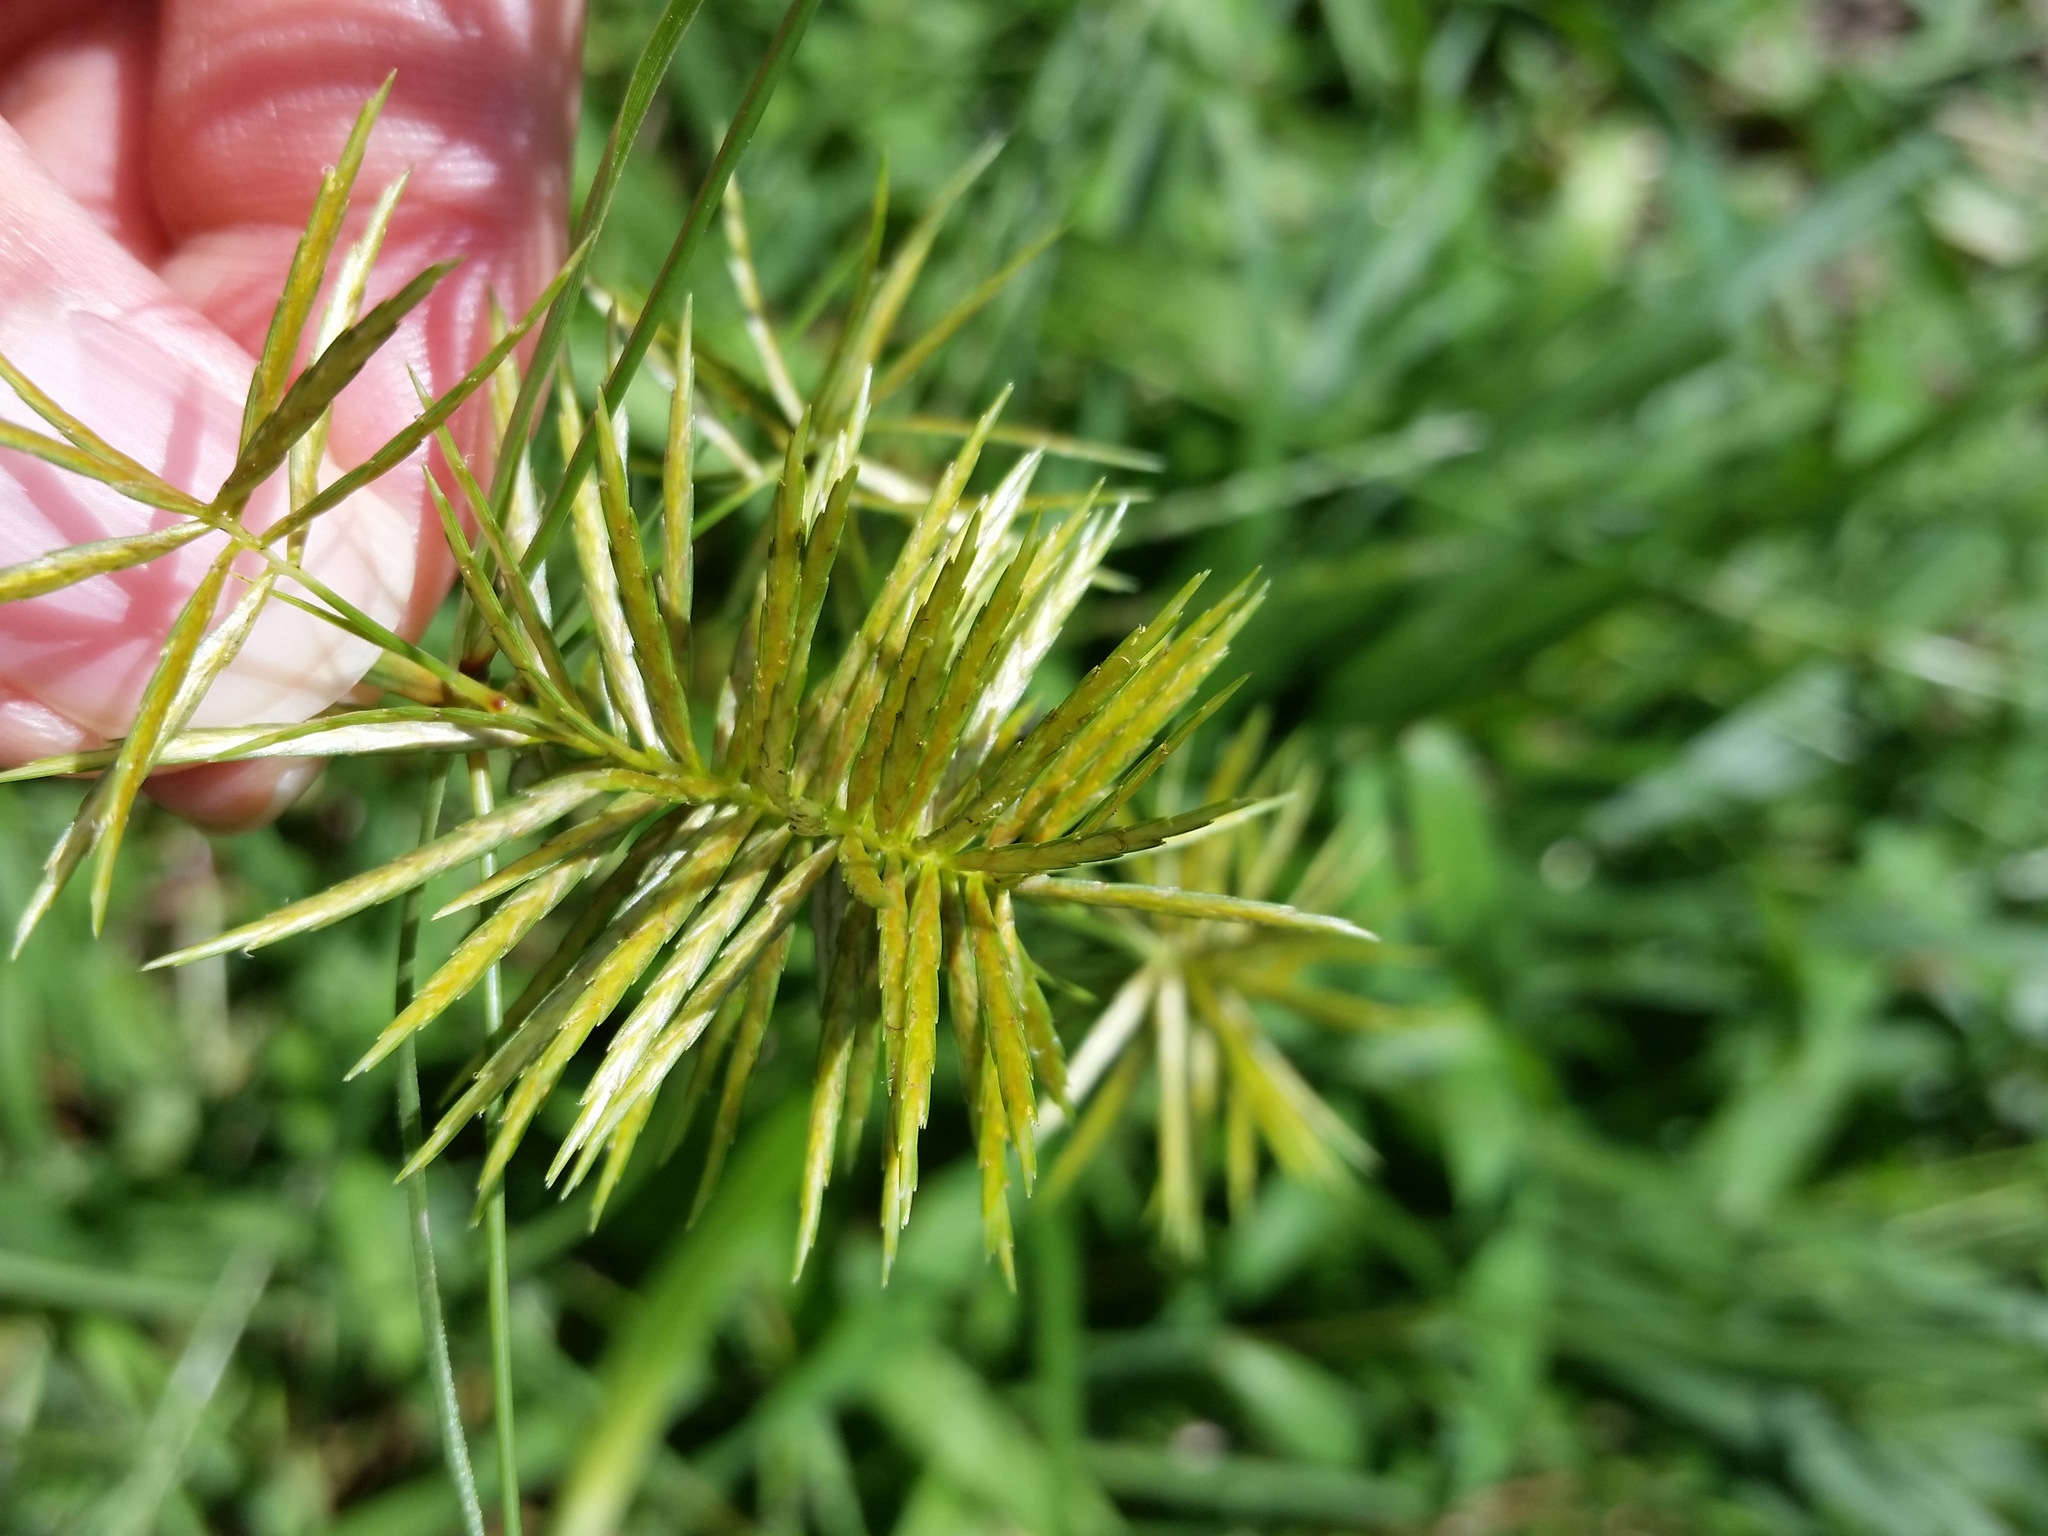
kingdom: Plantae
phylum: Tracheophyta
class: Liliopsida
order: Poales
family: Cyperaceae
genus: Cyperus
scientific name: Cyperus strigosus
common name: False nutsedge
